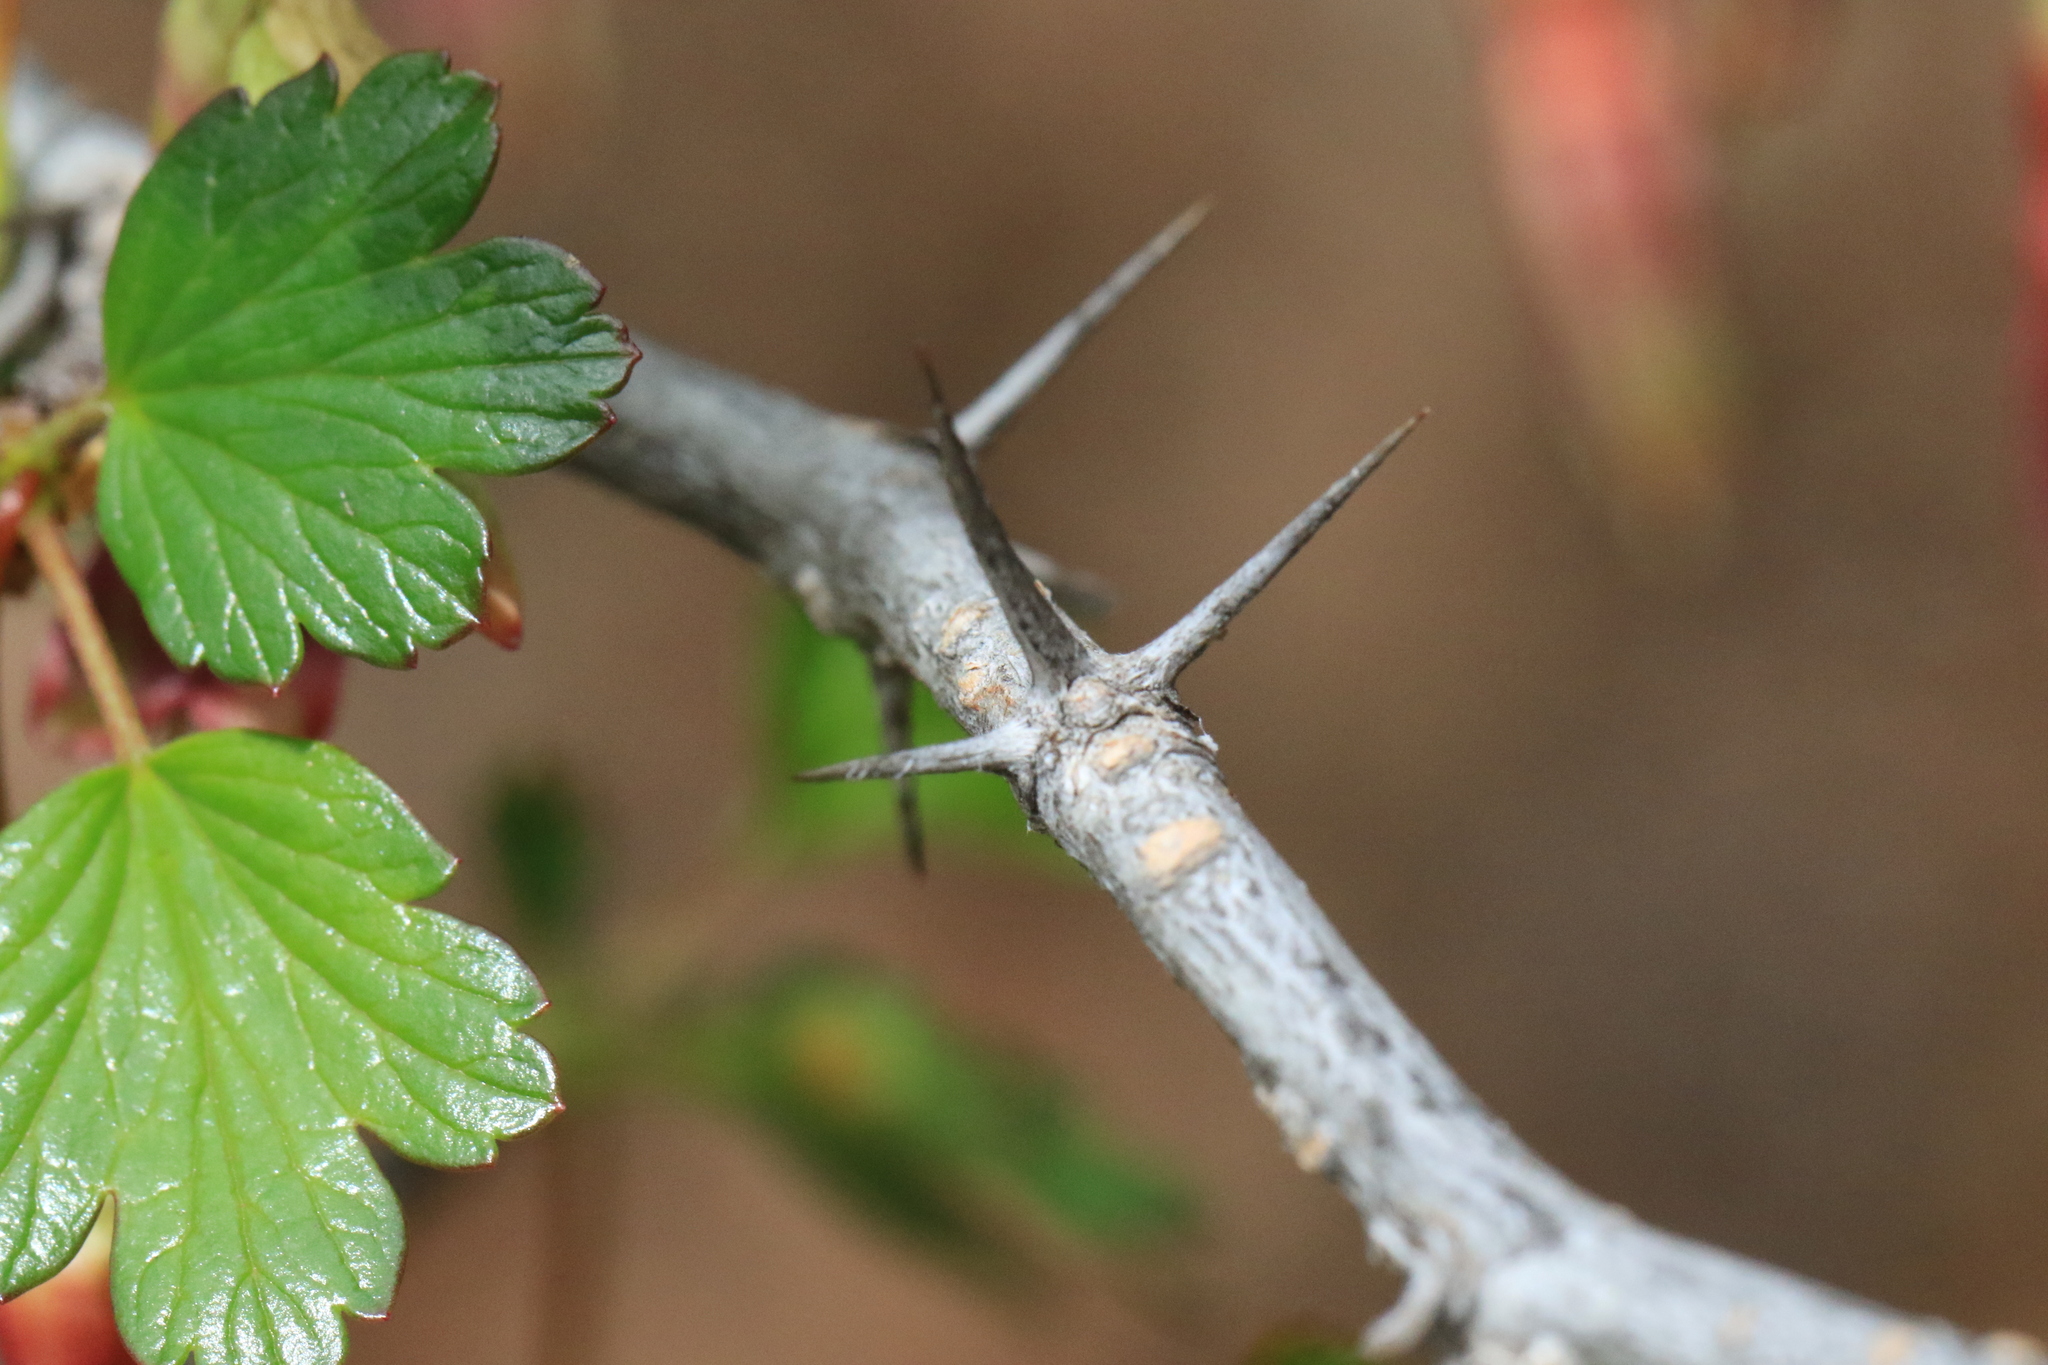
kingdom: Plantae
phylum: Tracheophyta
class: Magnoliopsida
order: Saxifragales
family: Grossulariaceae
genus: Ribes
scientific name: Ribes roezlii
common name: Sierra gooseberry
